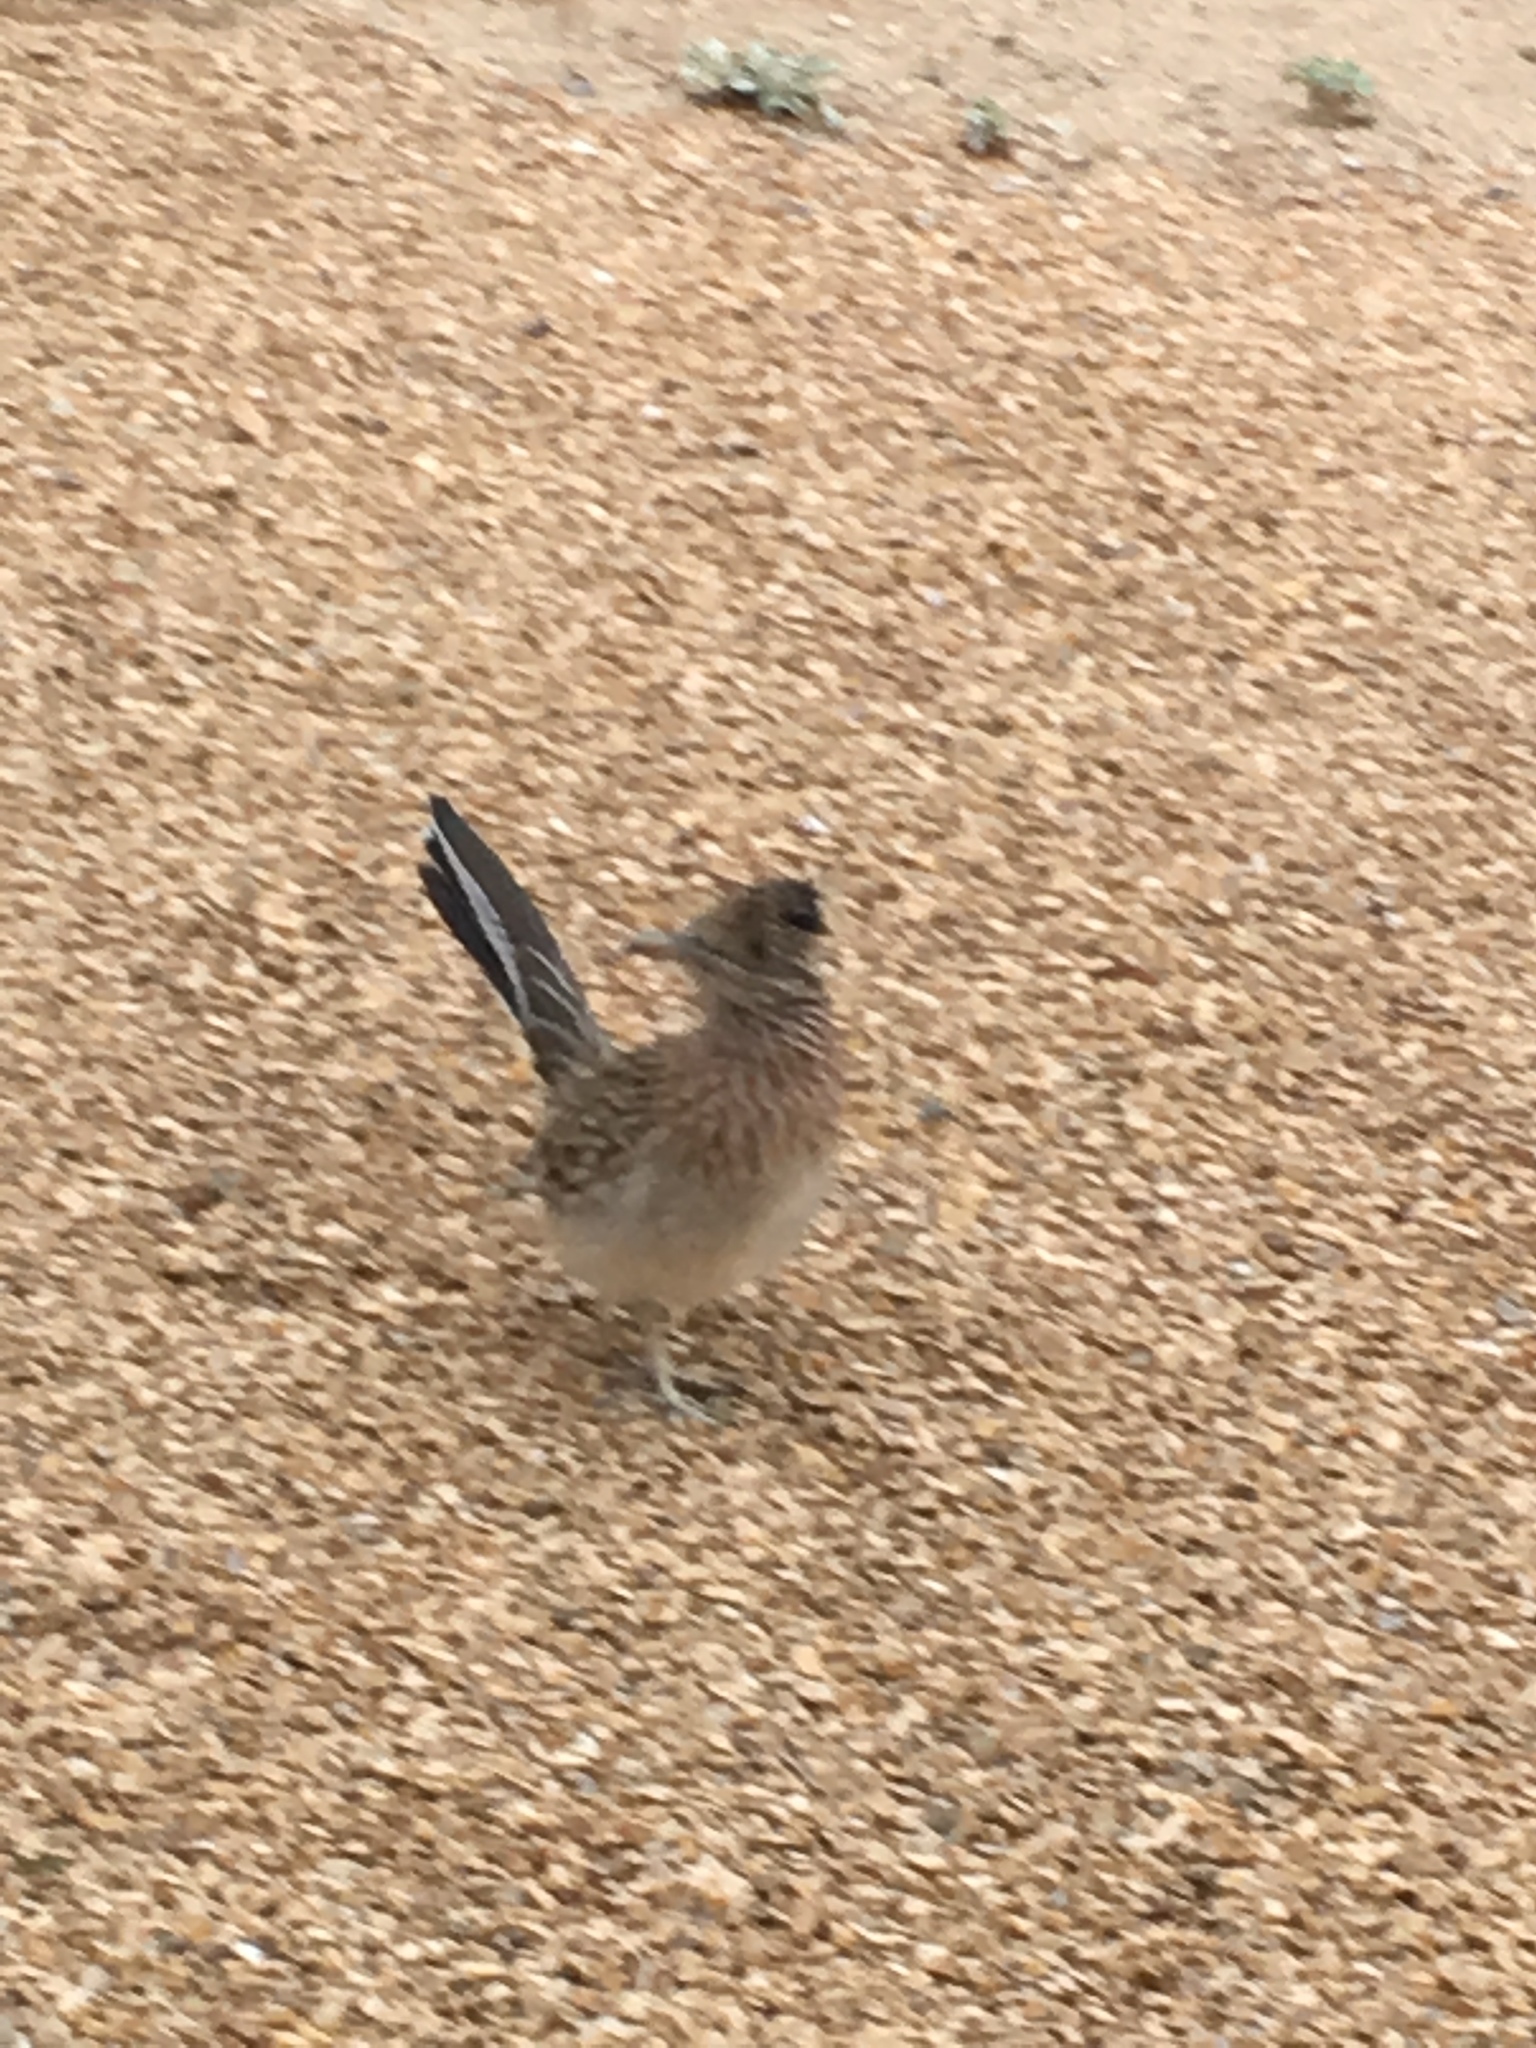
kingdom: Animalia
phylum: Chordata
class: Aves
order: Cuculiformes
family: Cuculidae
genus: Geococcyx
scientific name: Geococcyx californianus
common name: Greater roadrunner
